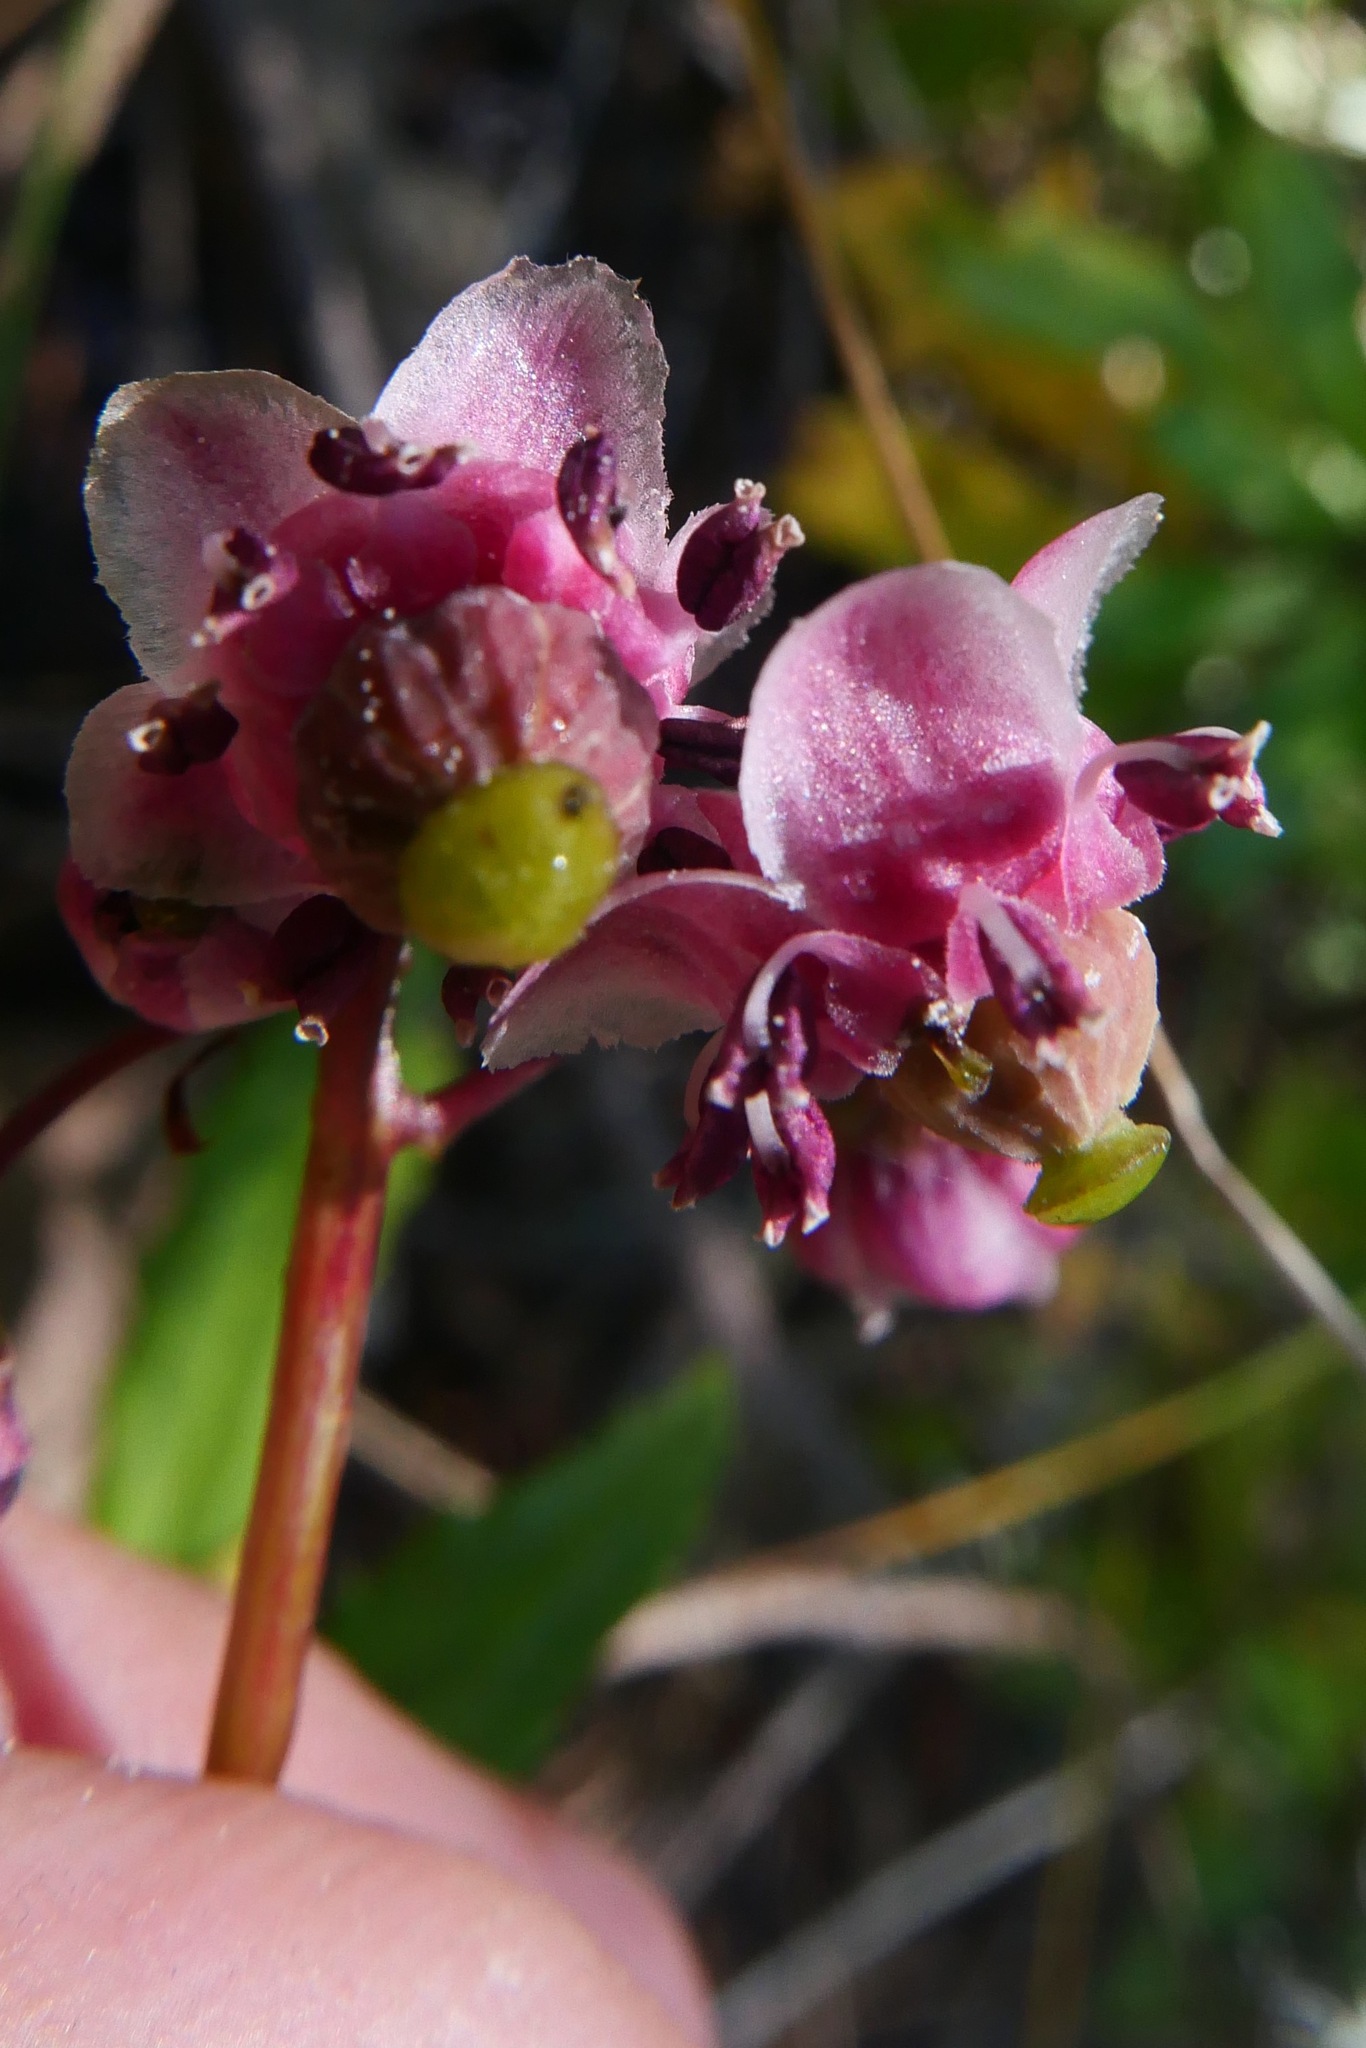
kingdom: Plantae
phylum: Tracheophyta
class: Magnoliopsida
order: Ericales
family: Ericaceae
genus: Chimaphila
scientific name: Chimaphila umbellata
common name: Pipsissewa
